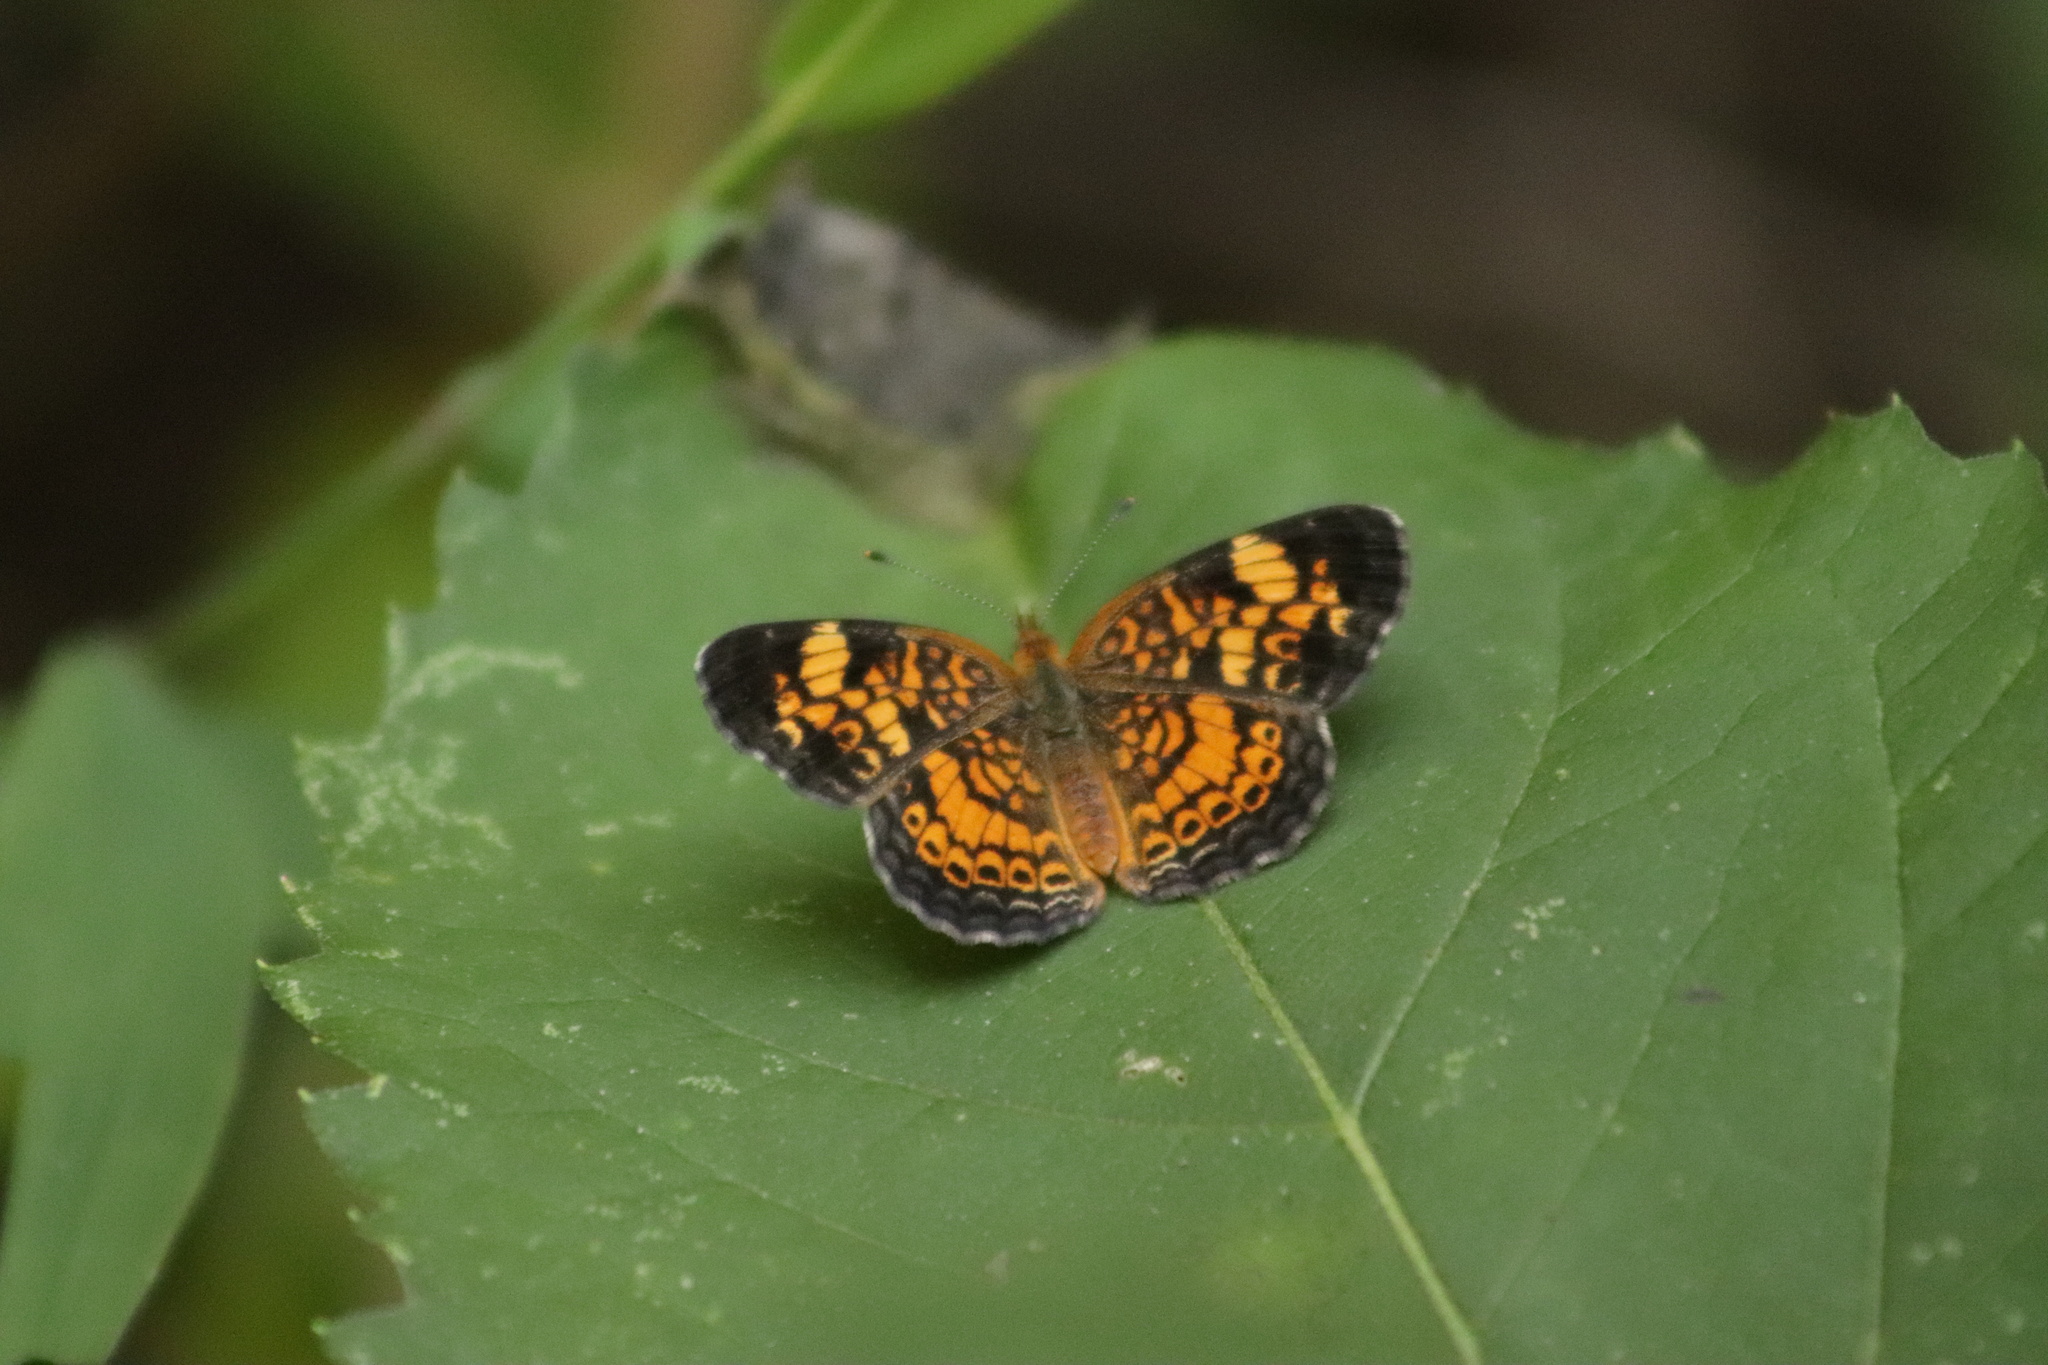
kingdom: Animalia
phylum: Arthropoda
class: Insecta
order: Lepidoptera
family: Nymphalidae
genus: Phyciodes
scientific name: Phyciodes tharos
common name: Pearl crescent
